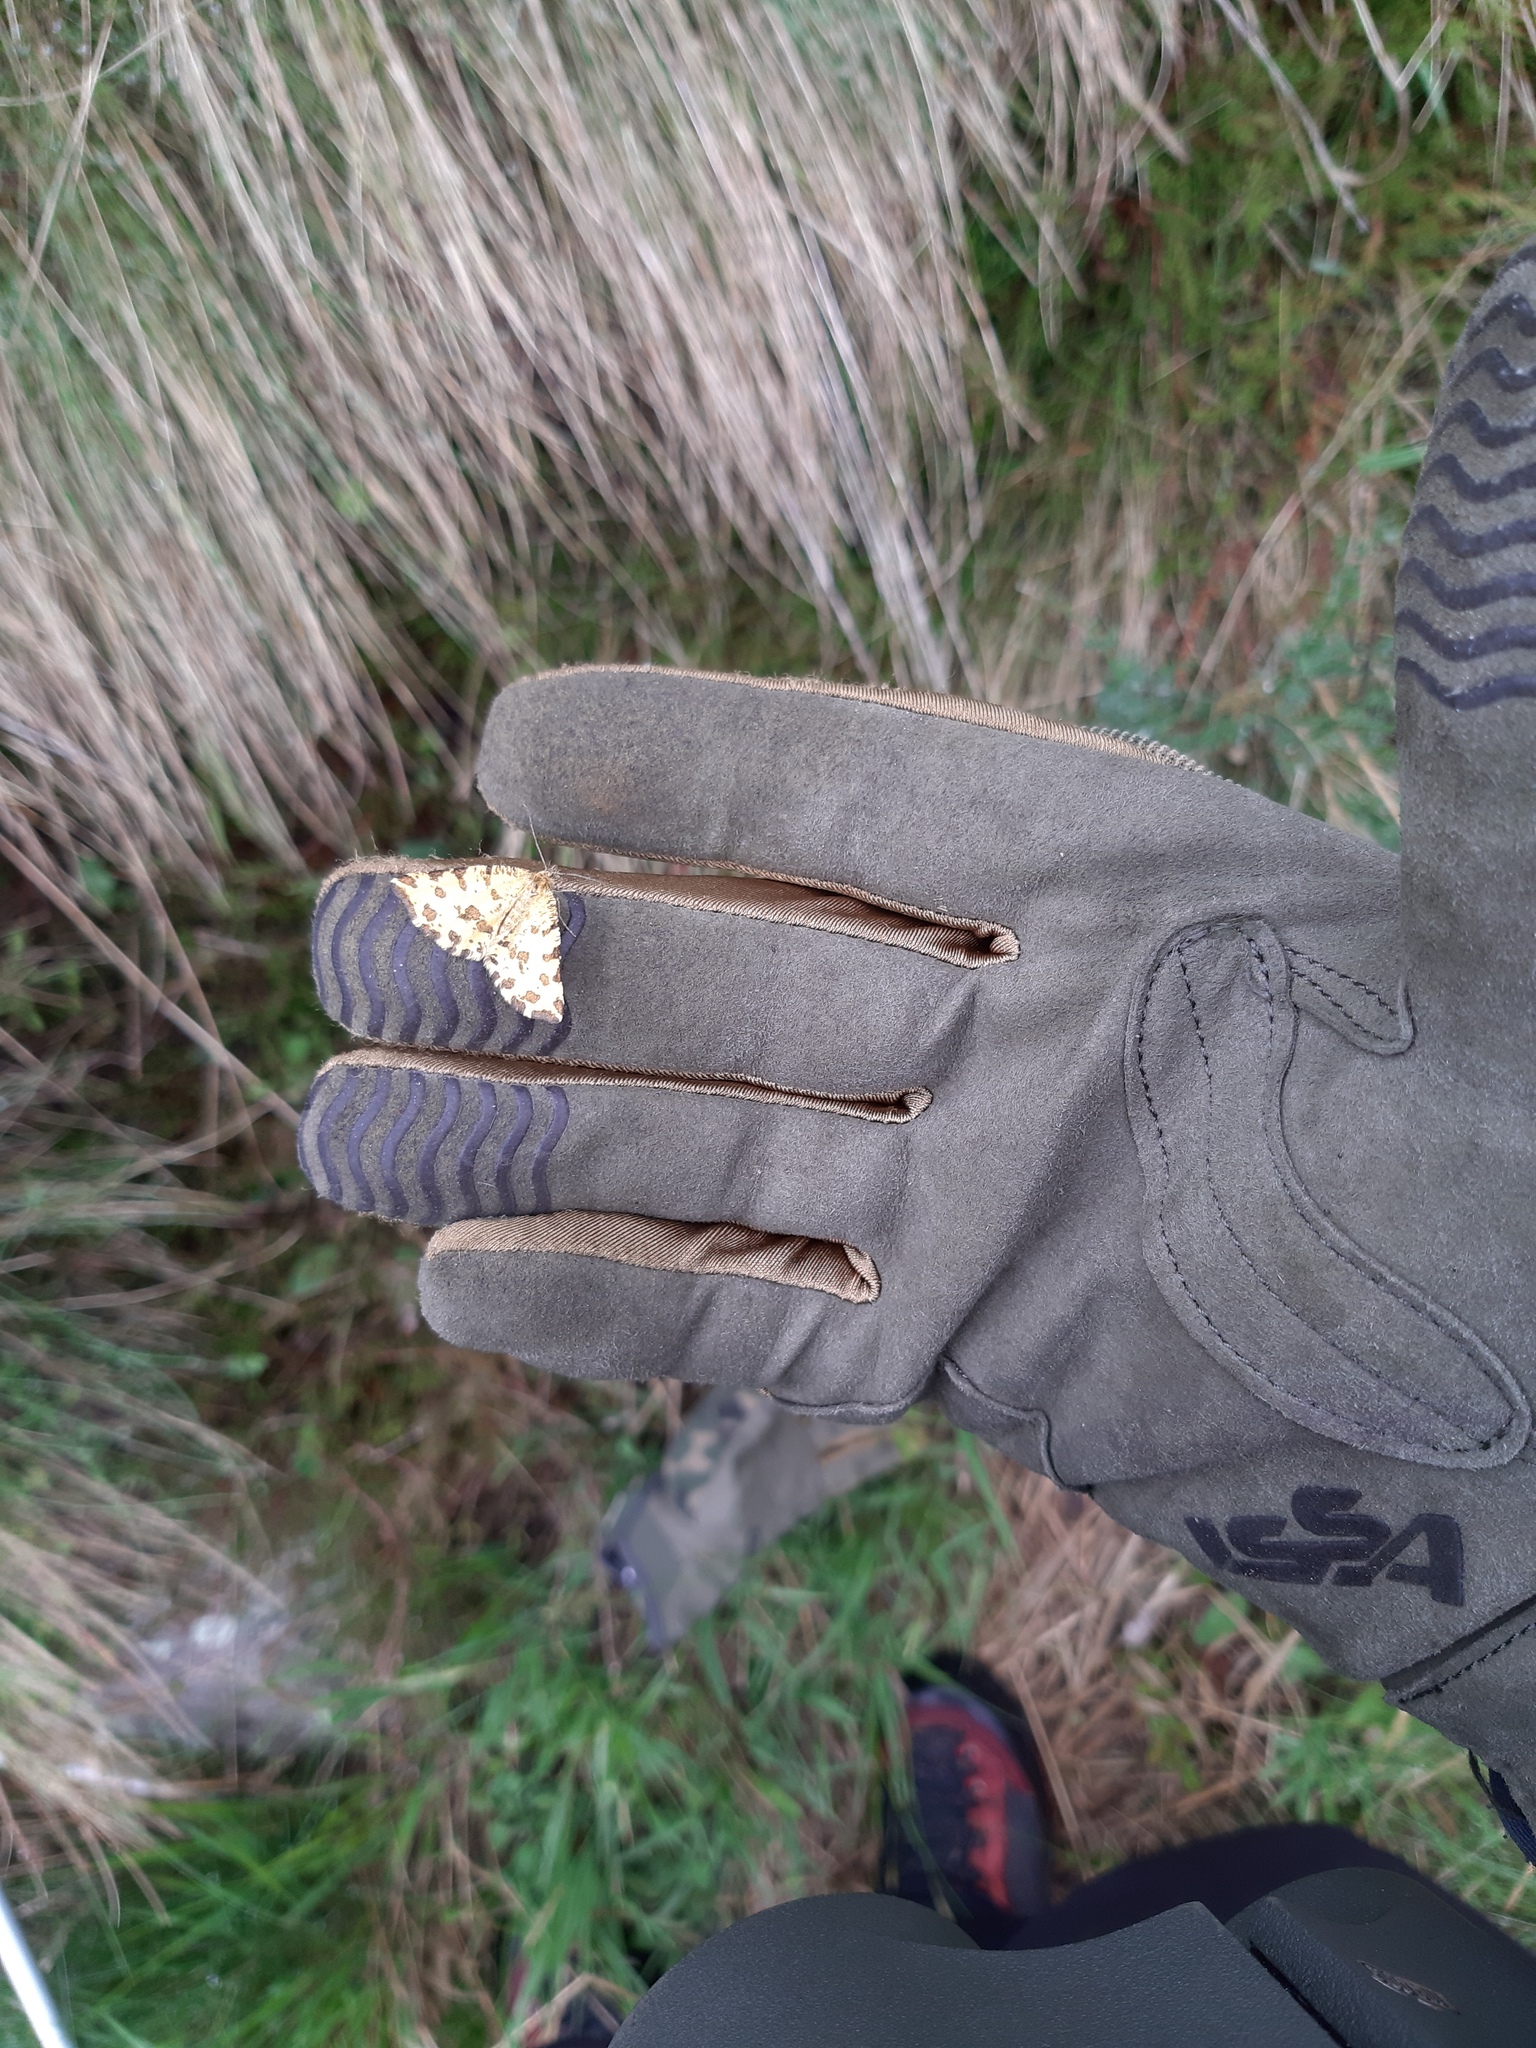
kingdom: Animalia
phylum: Arthropoda
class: Insecta
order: Lepidoptera
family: Geometridae
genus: Pseudopanthera
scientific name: Pseudopanthera macularia
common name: Speckled yellow
